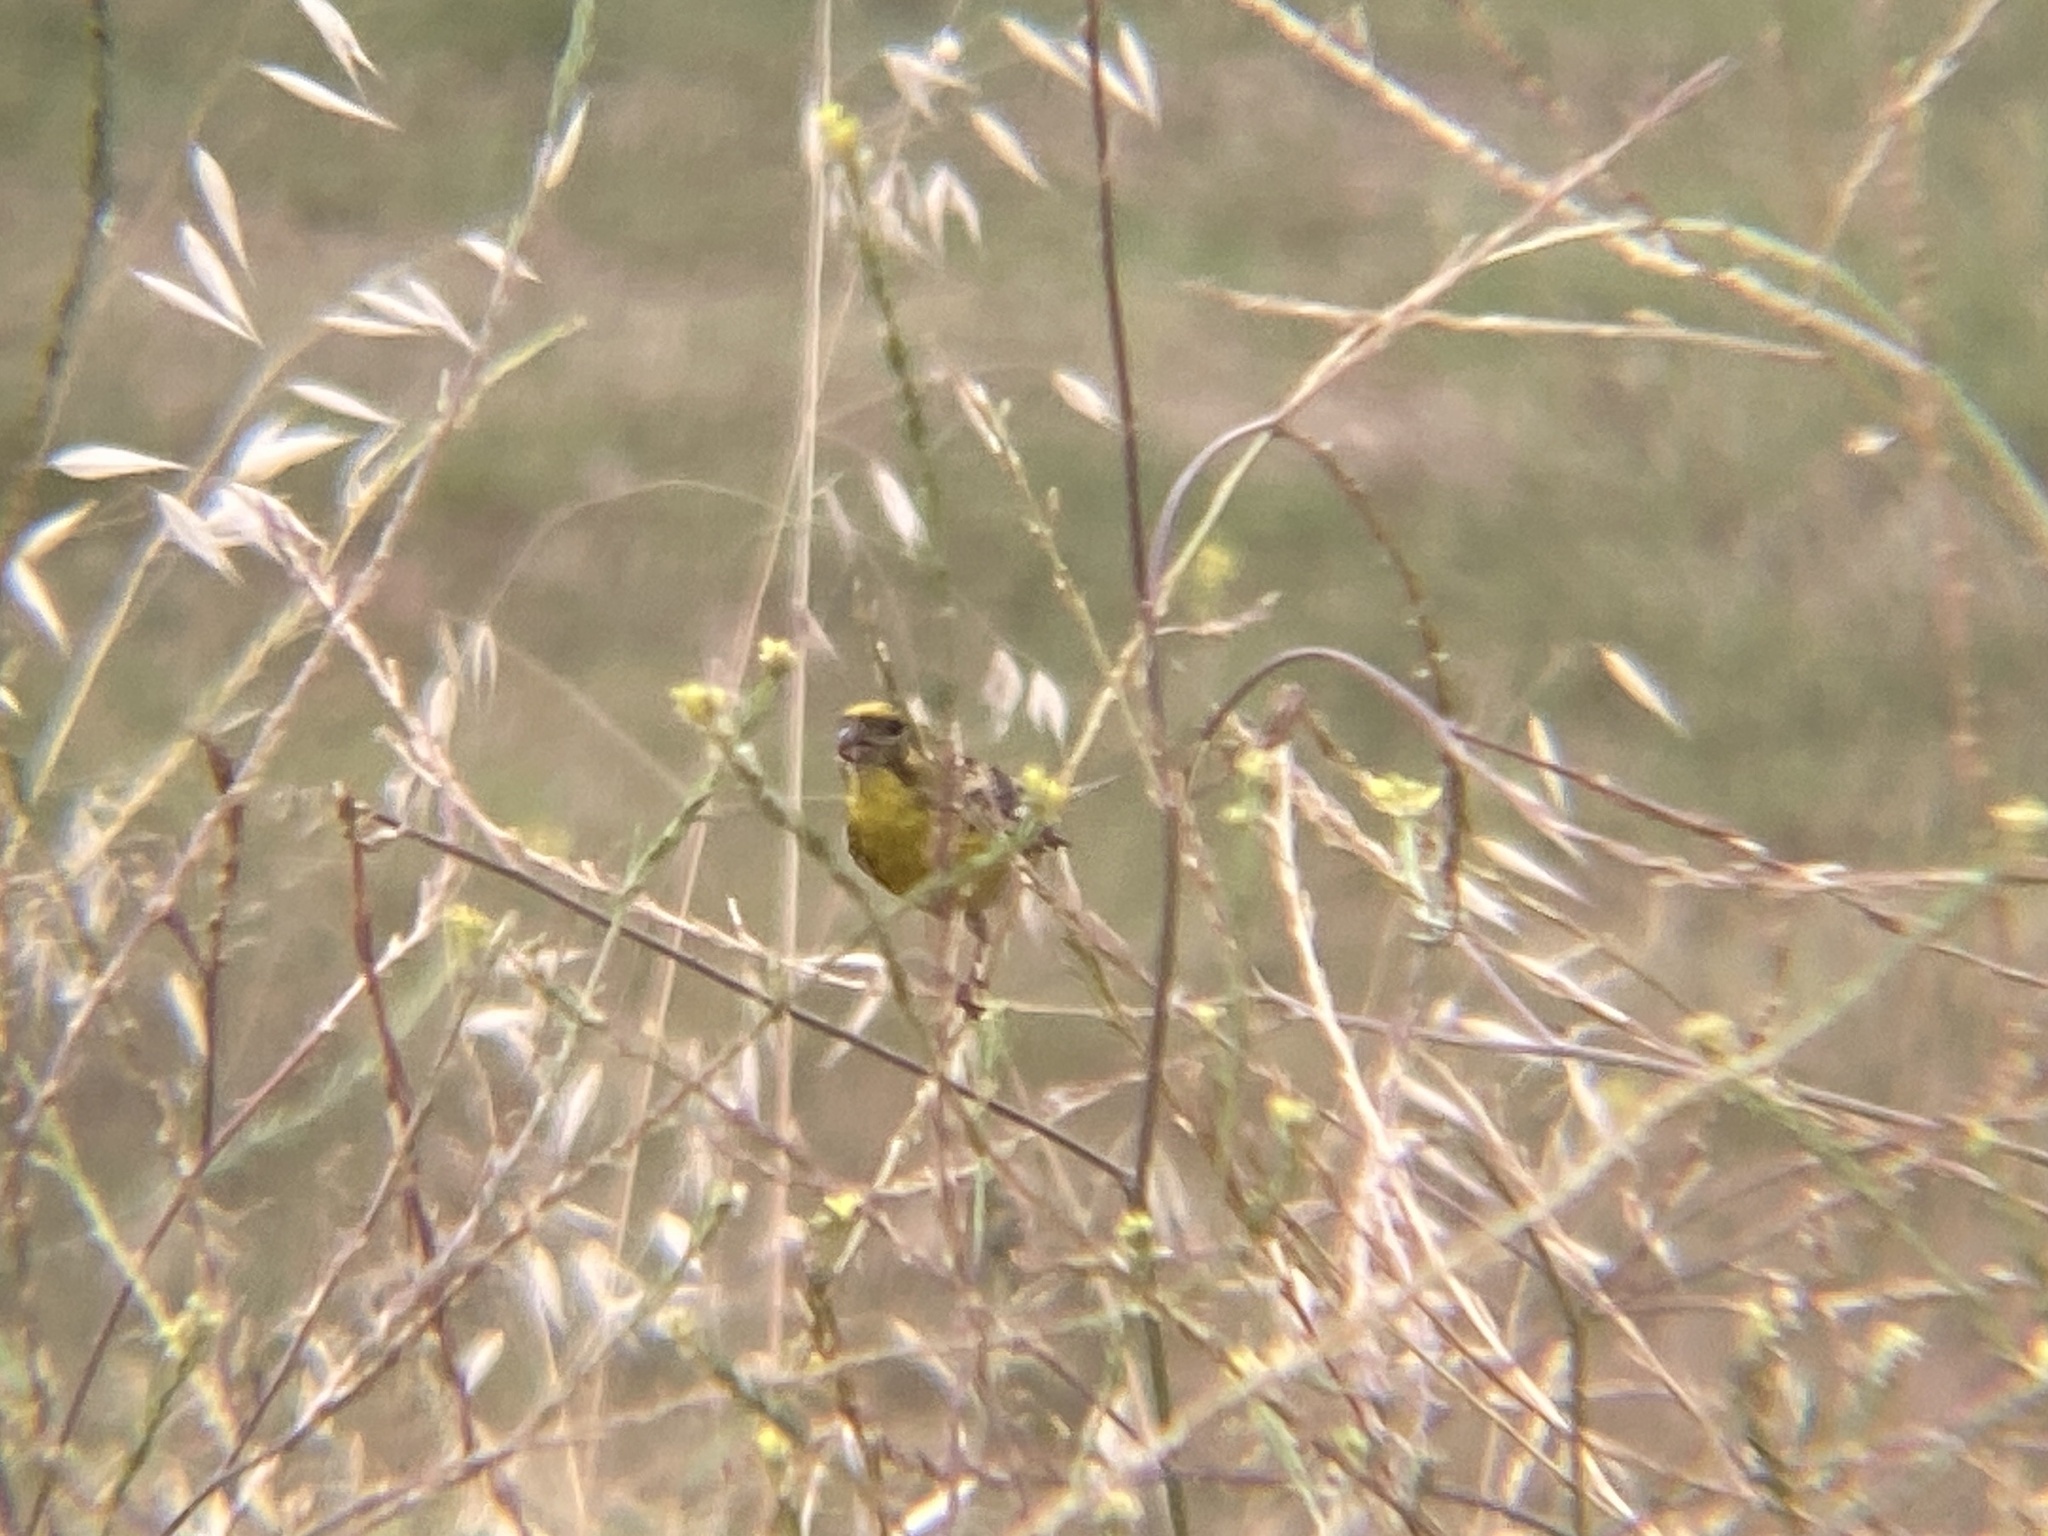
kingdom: Animalia
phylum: Chordata
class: Aves
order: Passeriformes
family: Fringillidae
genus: Serinus
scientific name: Serinus serinus
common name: European serin
